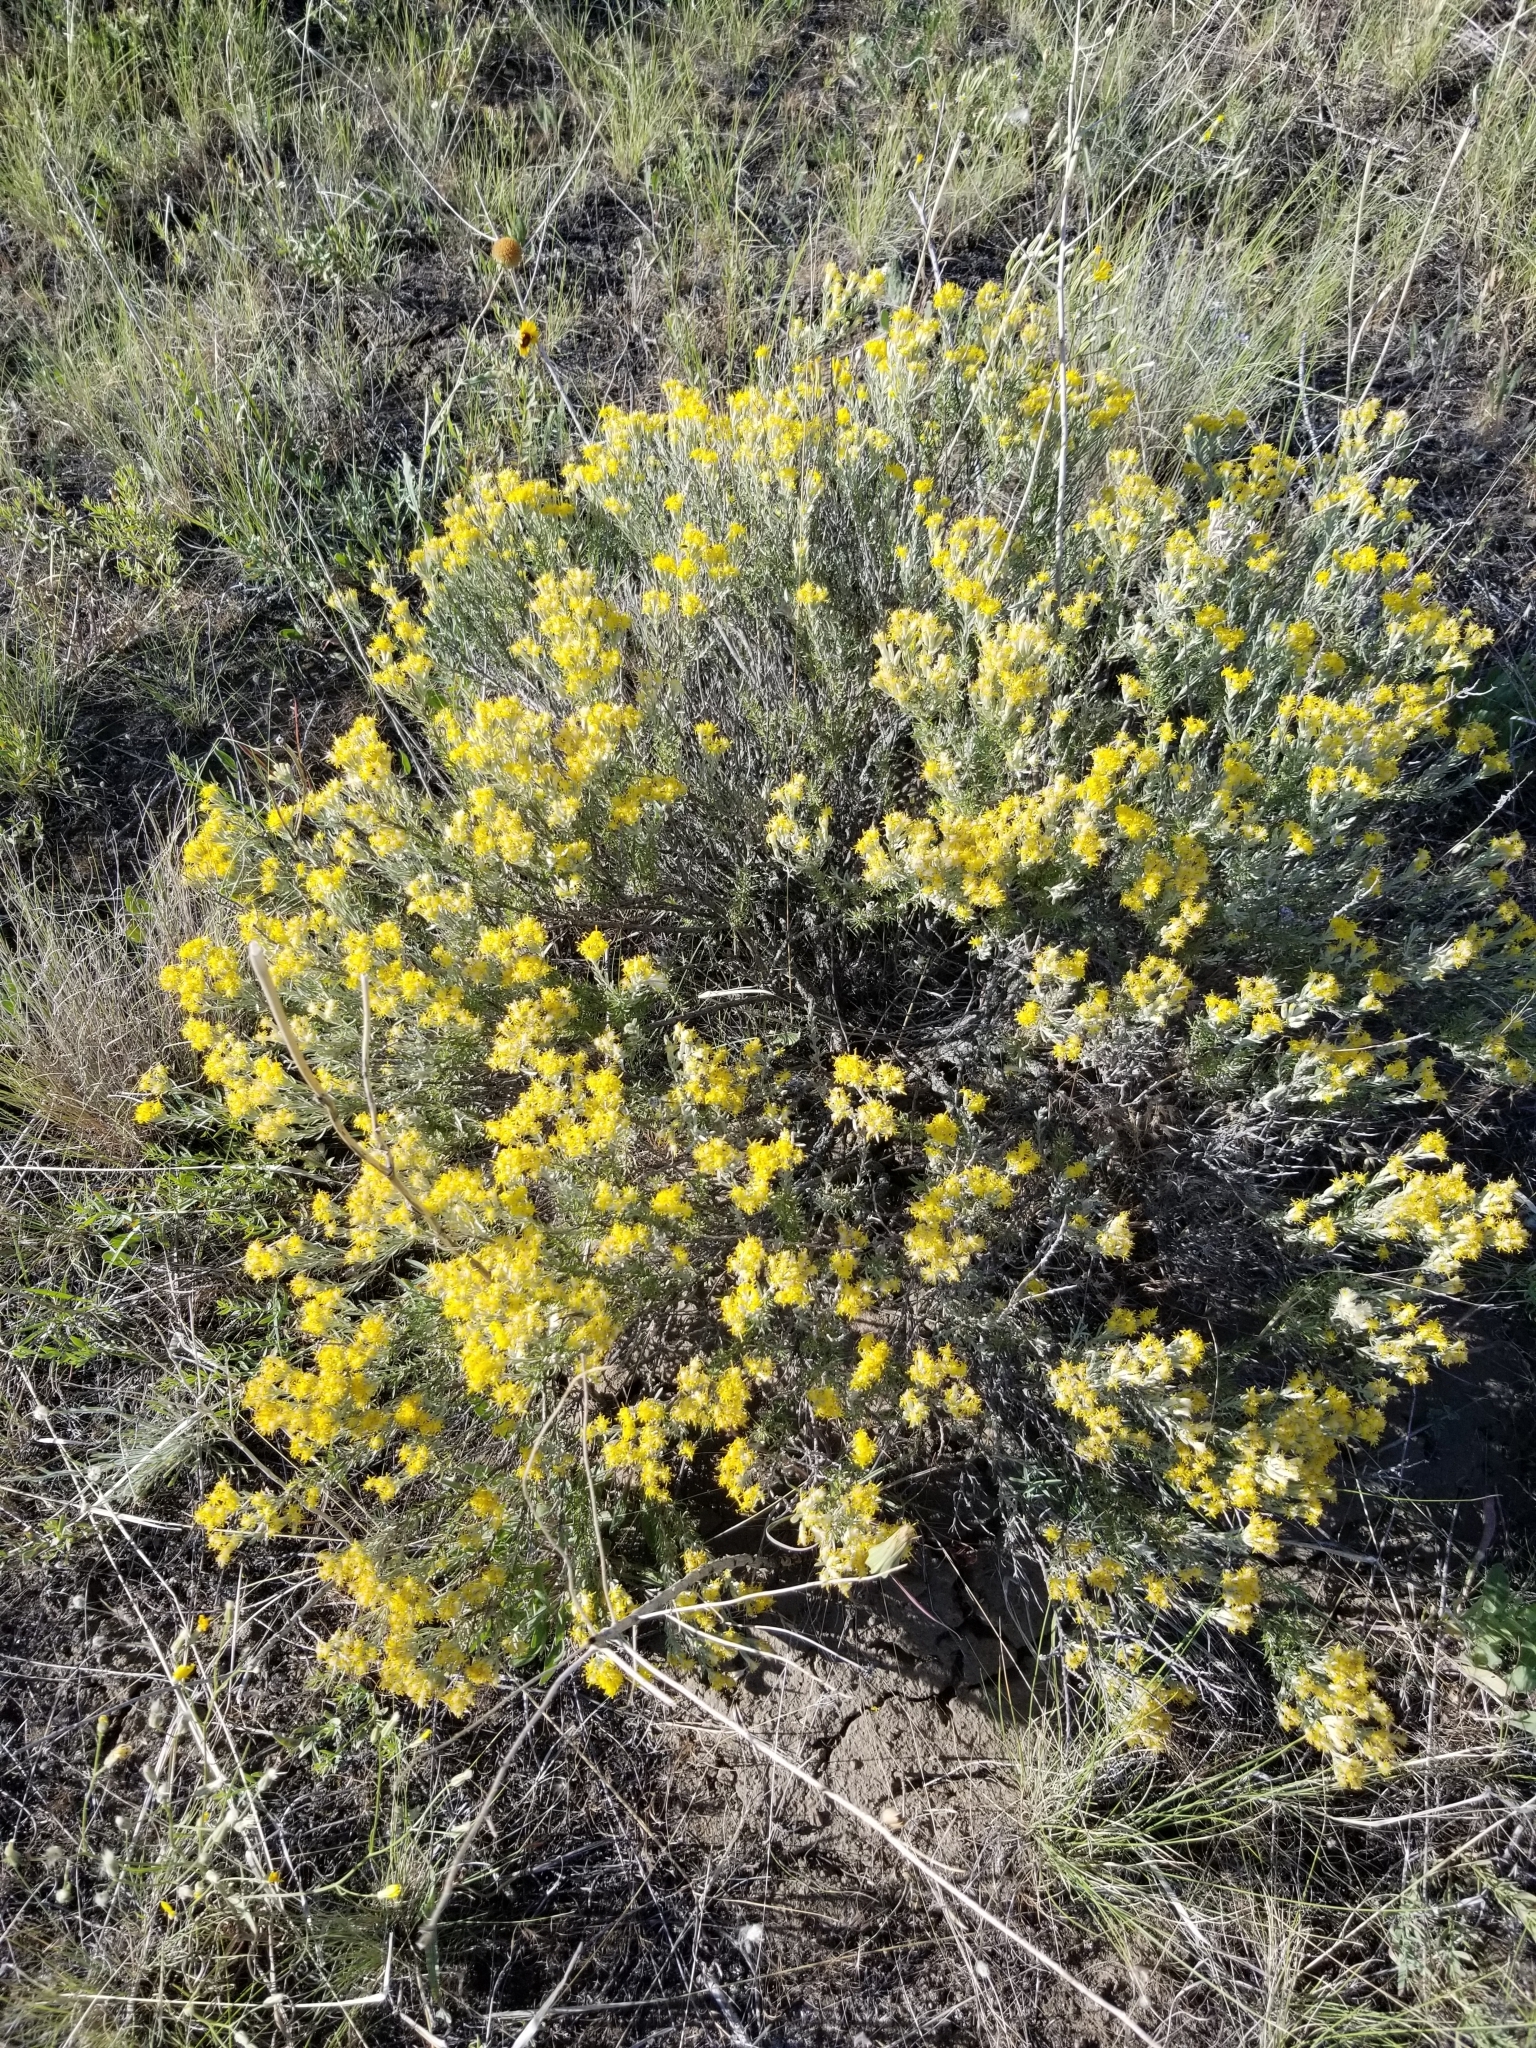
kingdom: Plantae
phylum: Tracheophyta
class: Magnoliopsida
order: Asterales
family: Asteraceae
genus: Tetradymia
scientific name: Tetradymia canescens
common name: Spineless horsebrush
